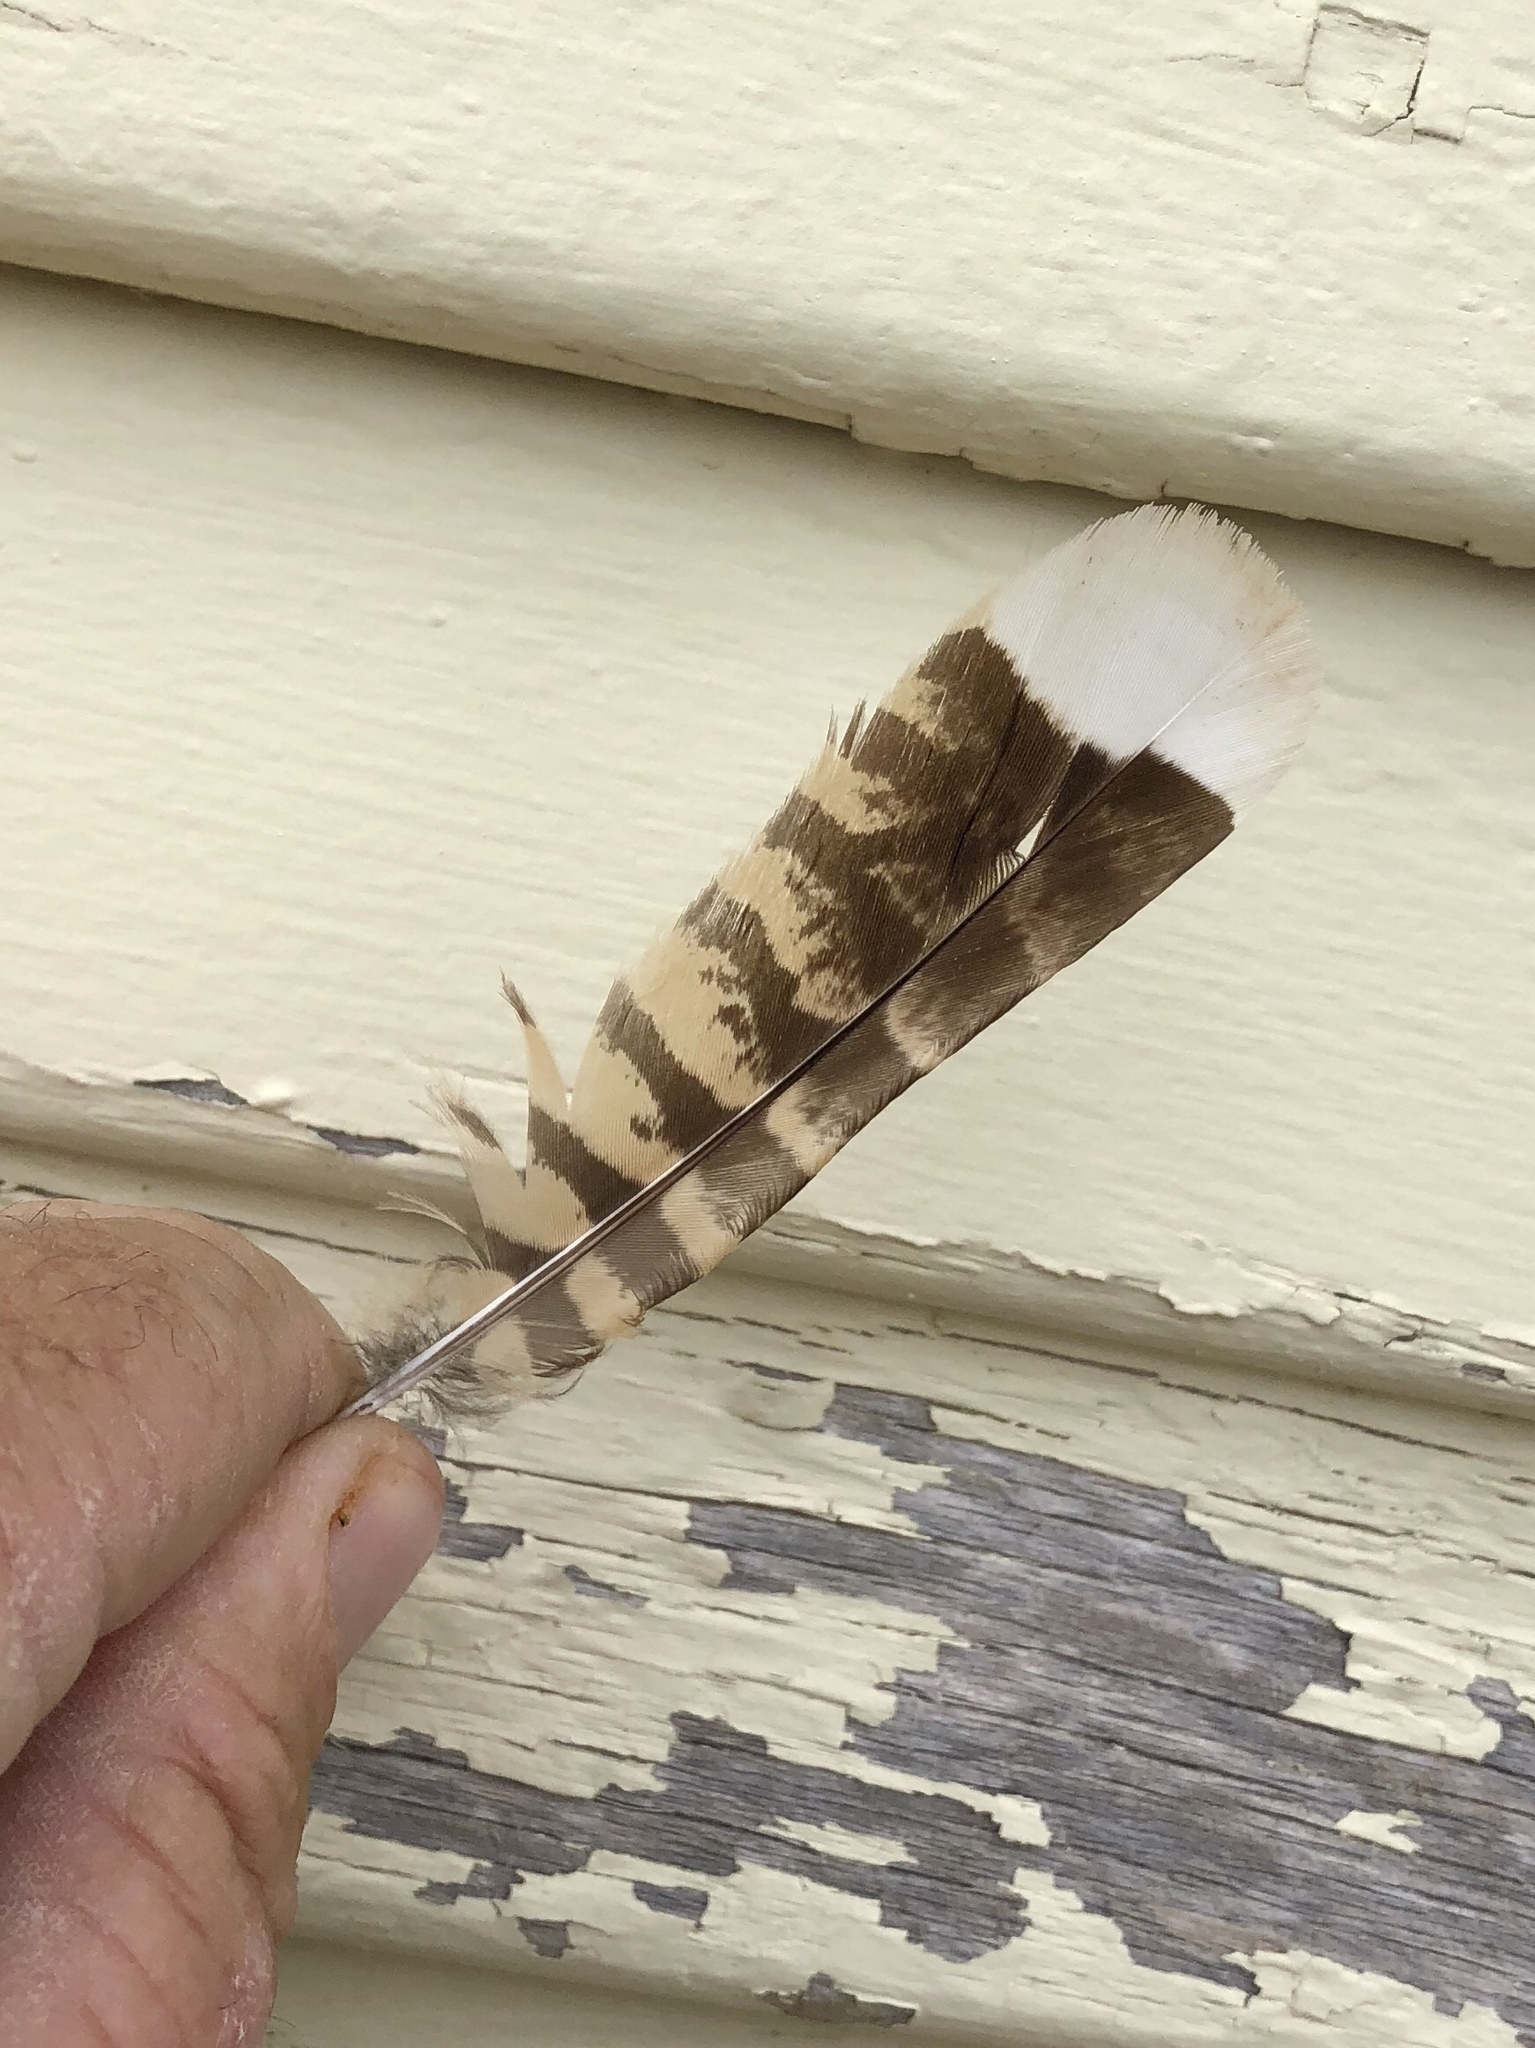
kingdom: Animalia
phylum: Chordata
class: Aves
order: Caprimulgiformes
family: Caprimulgidae
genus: Phalaenoptilus
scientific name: Phalaenoptilus nuttallii
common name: Common poorwill
